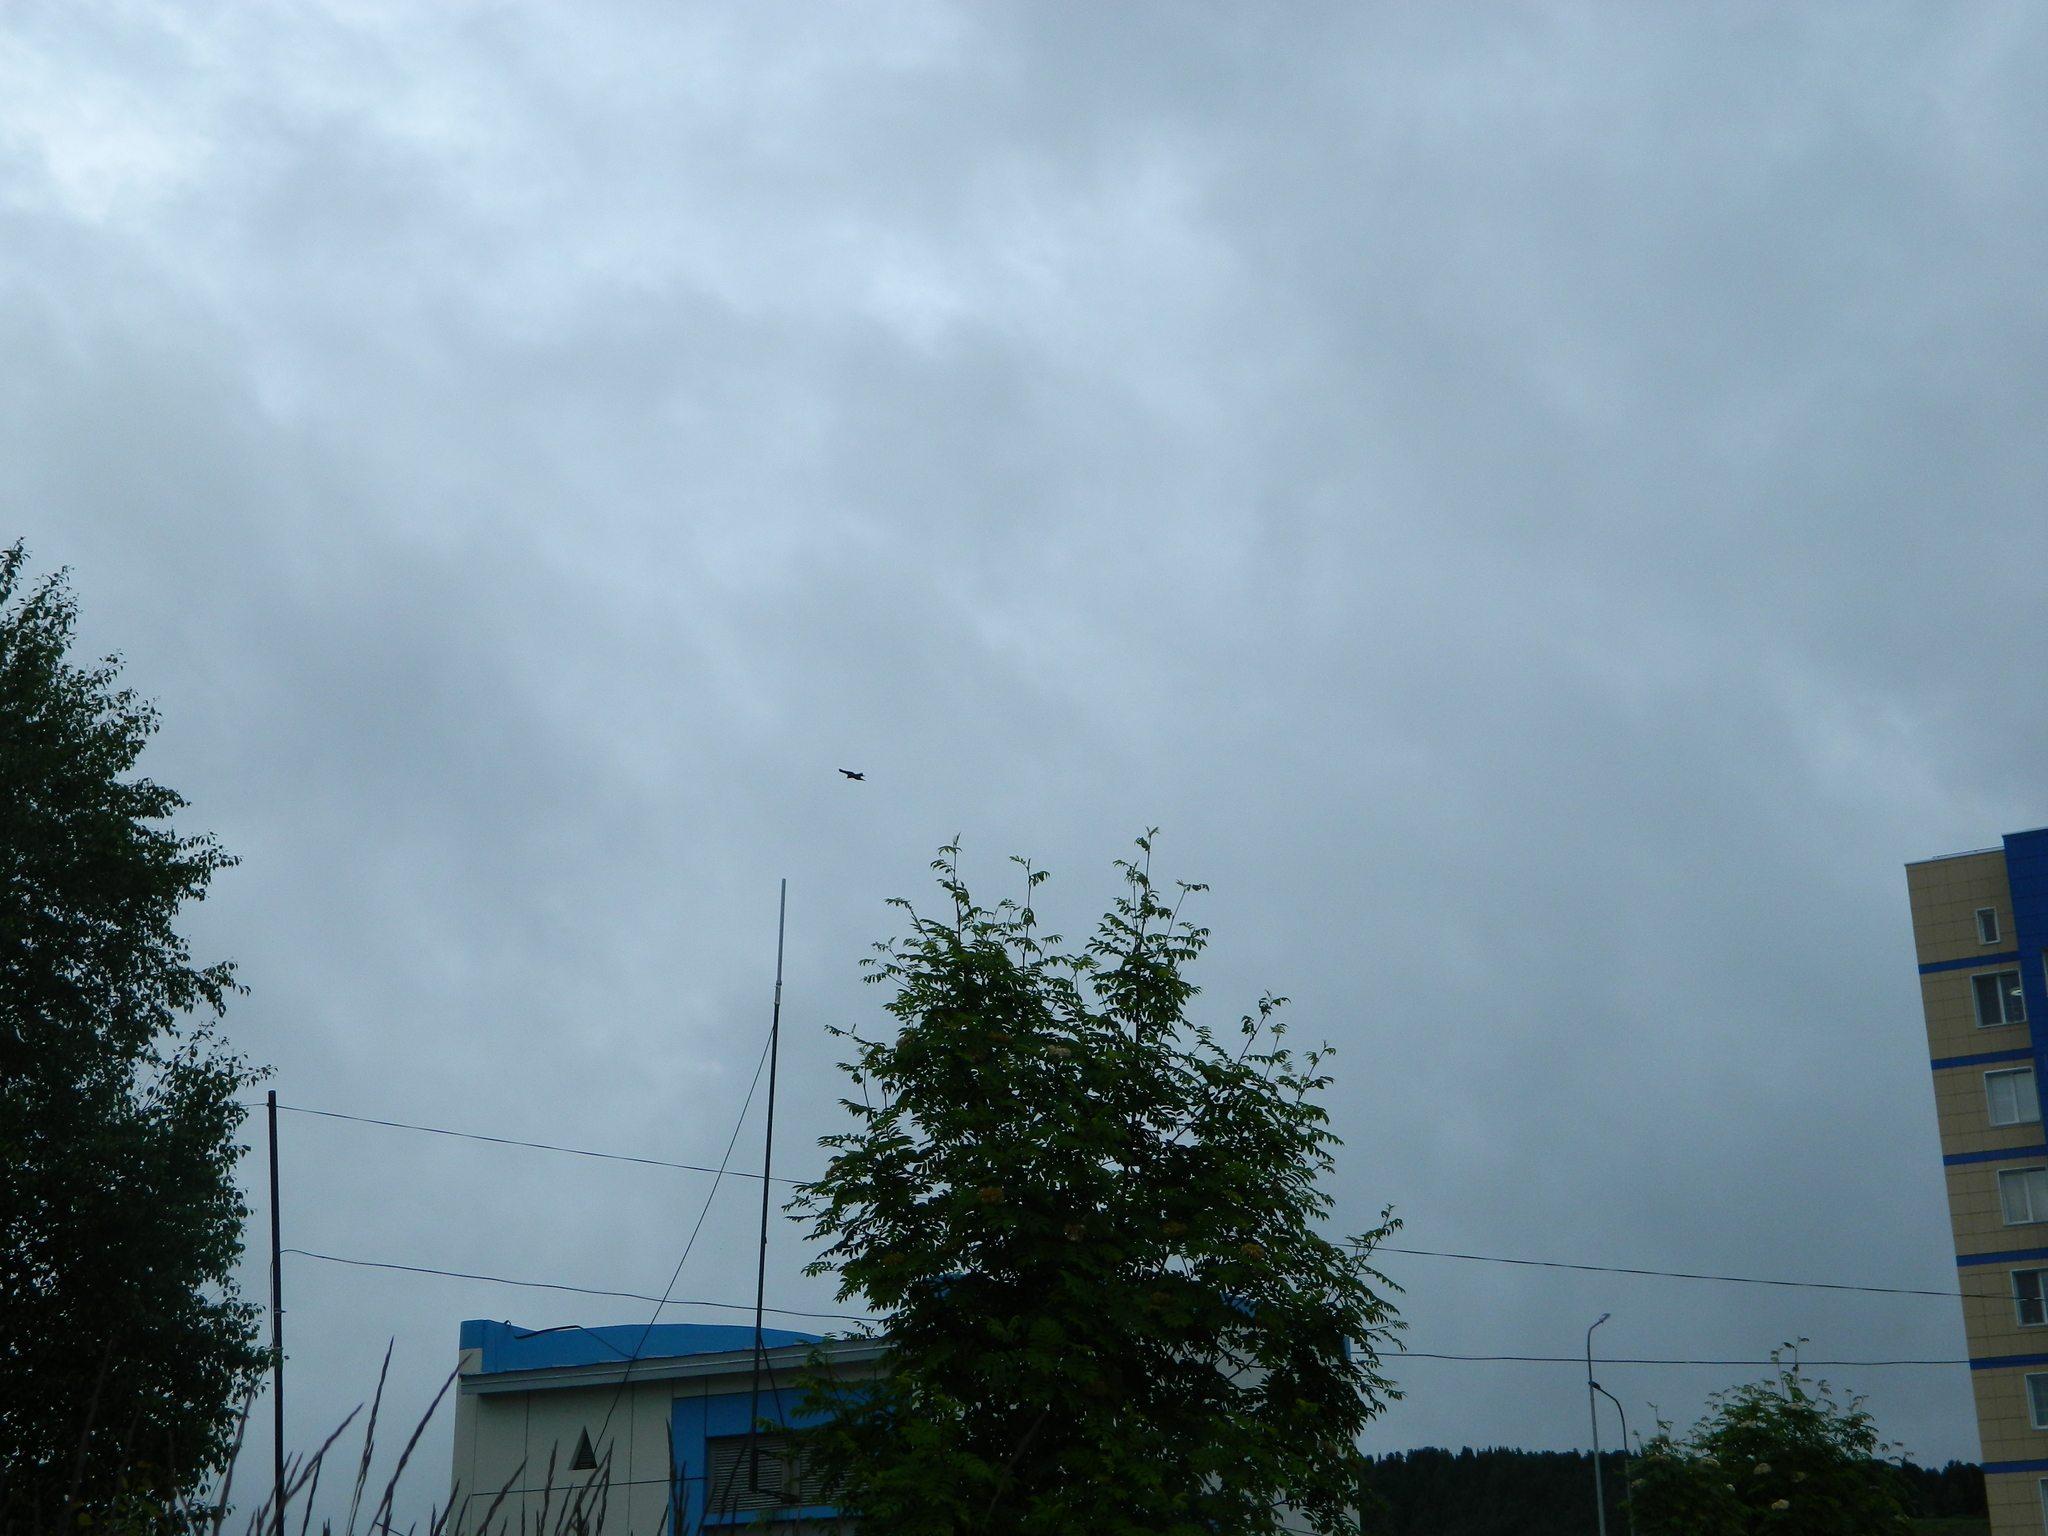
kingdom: Animalia
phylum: Chordata
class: Aves
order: Accipitriformes
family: Accipitridae
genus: Milvus
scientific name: Milvus migrans
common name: Black kite
